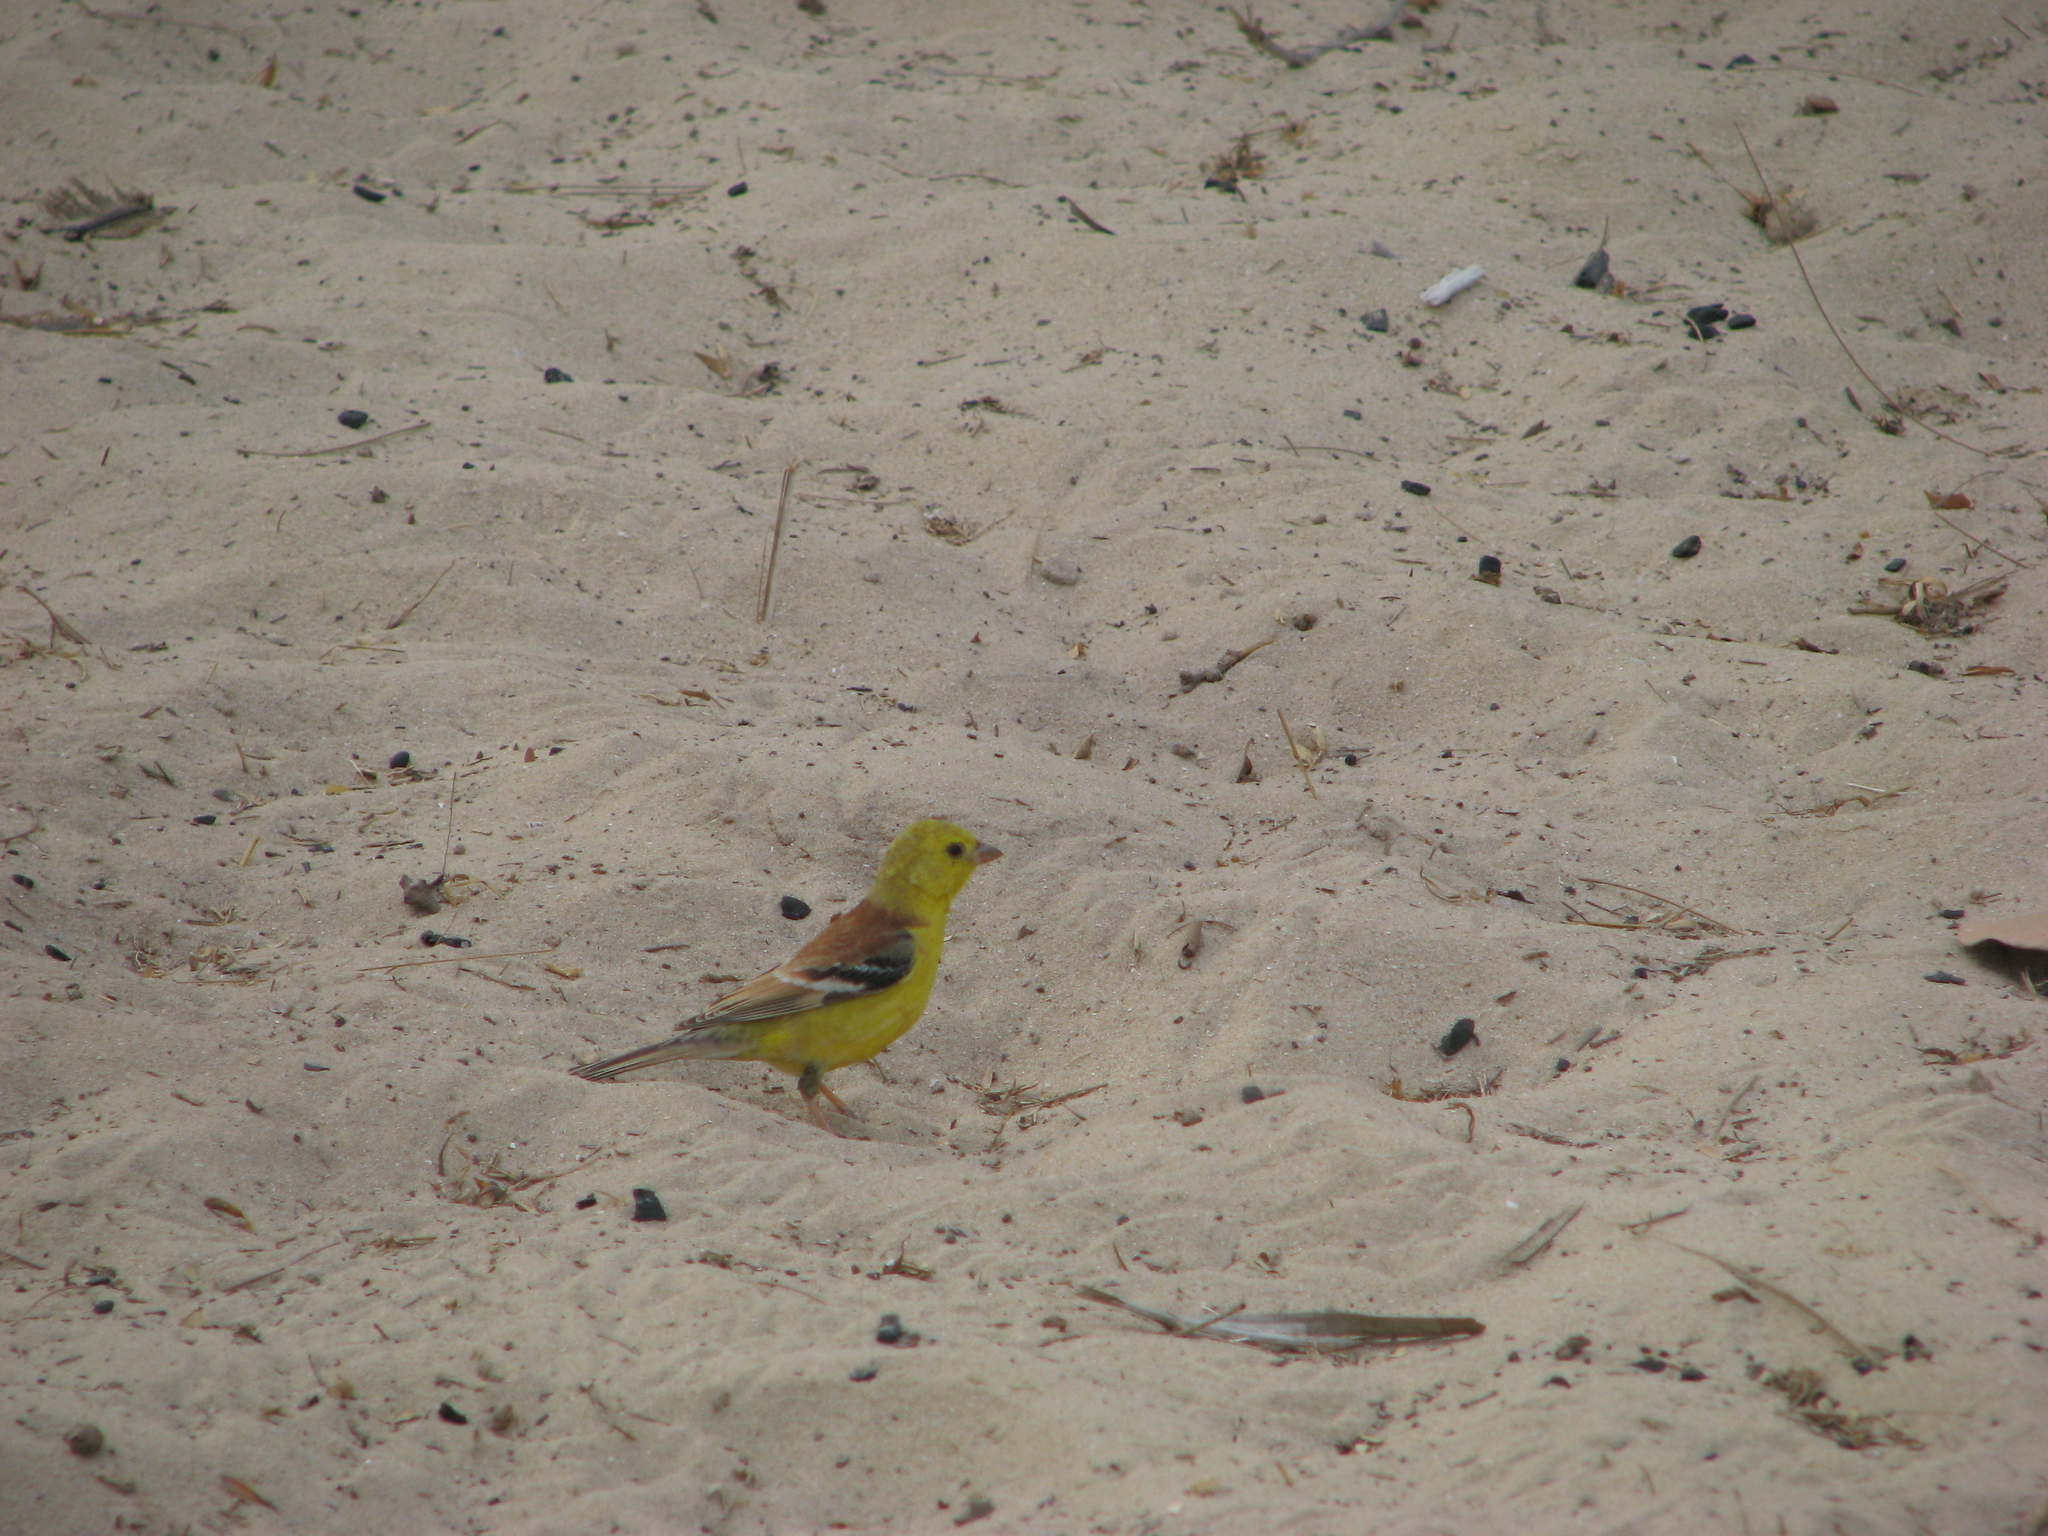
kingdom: Animalia
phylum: Chordata
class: Aves
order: Passeriformes
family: Passeridae
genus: Passer
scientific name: Passer luteus
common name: Sudan golden sparrow
